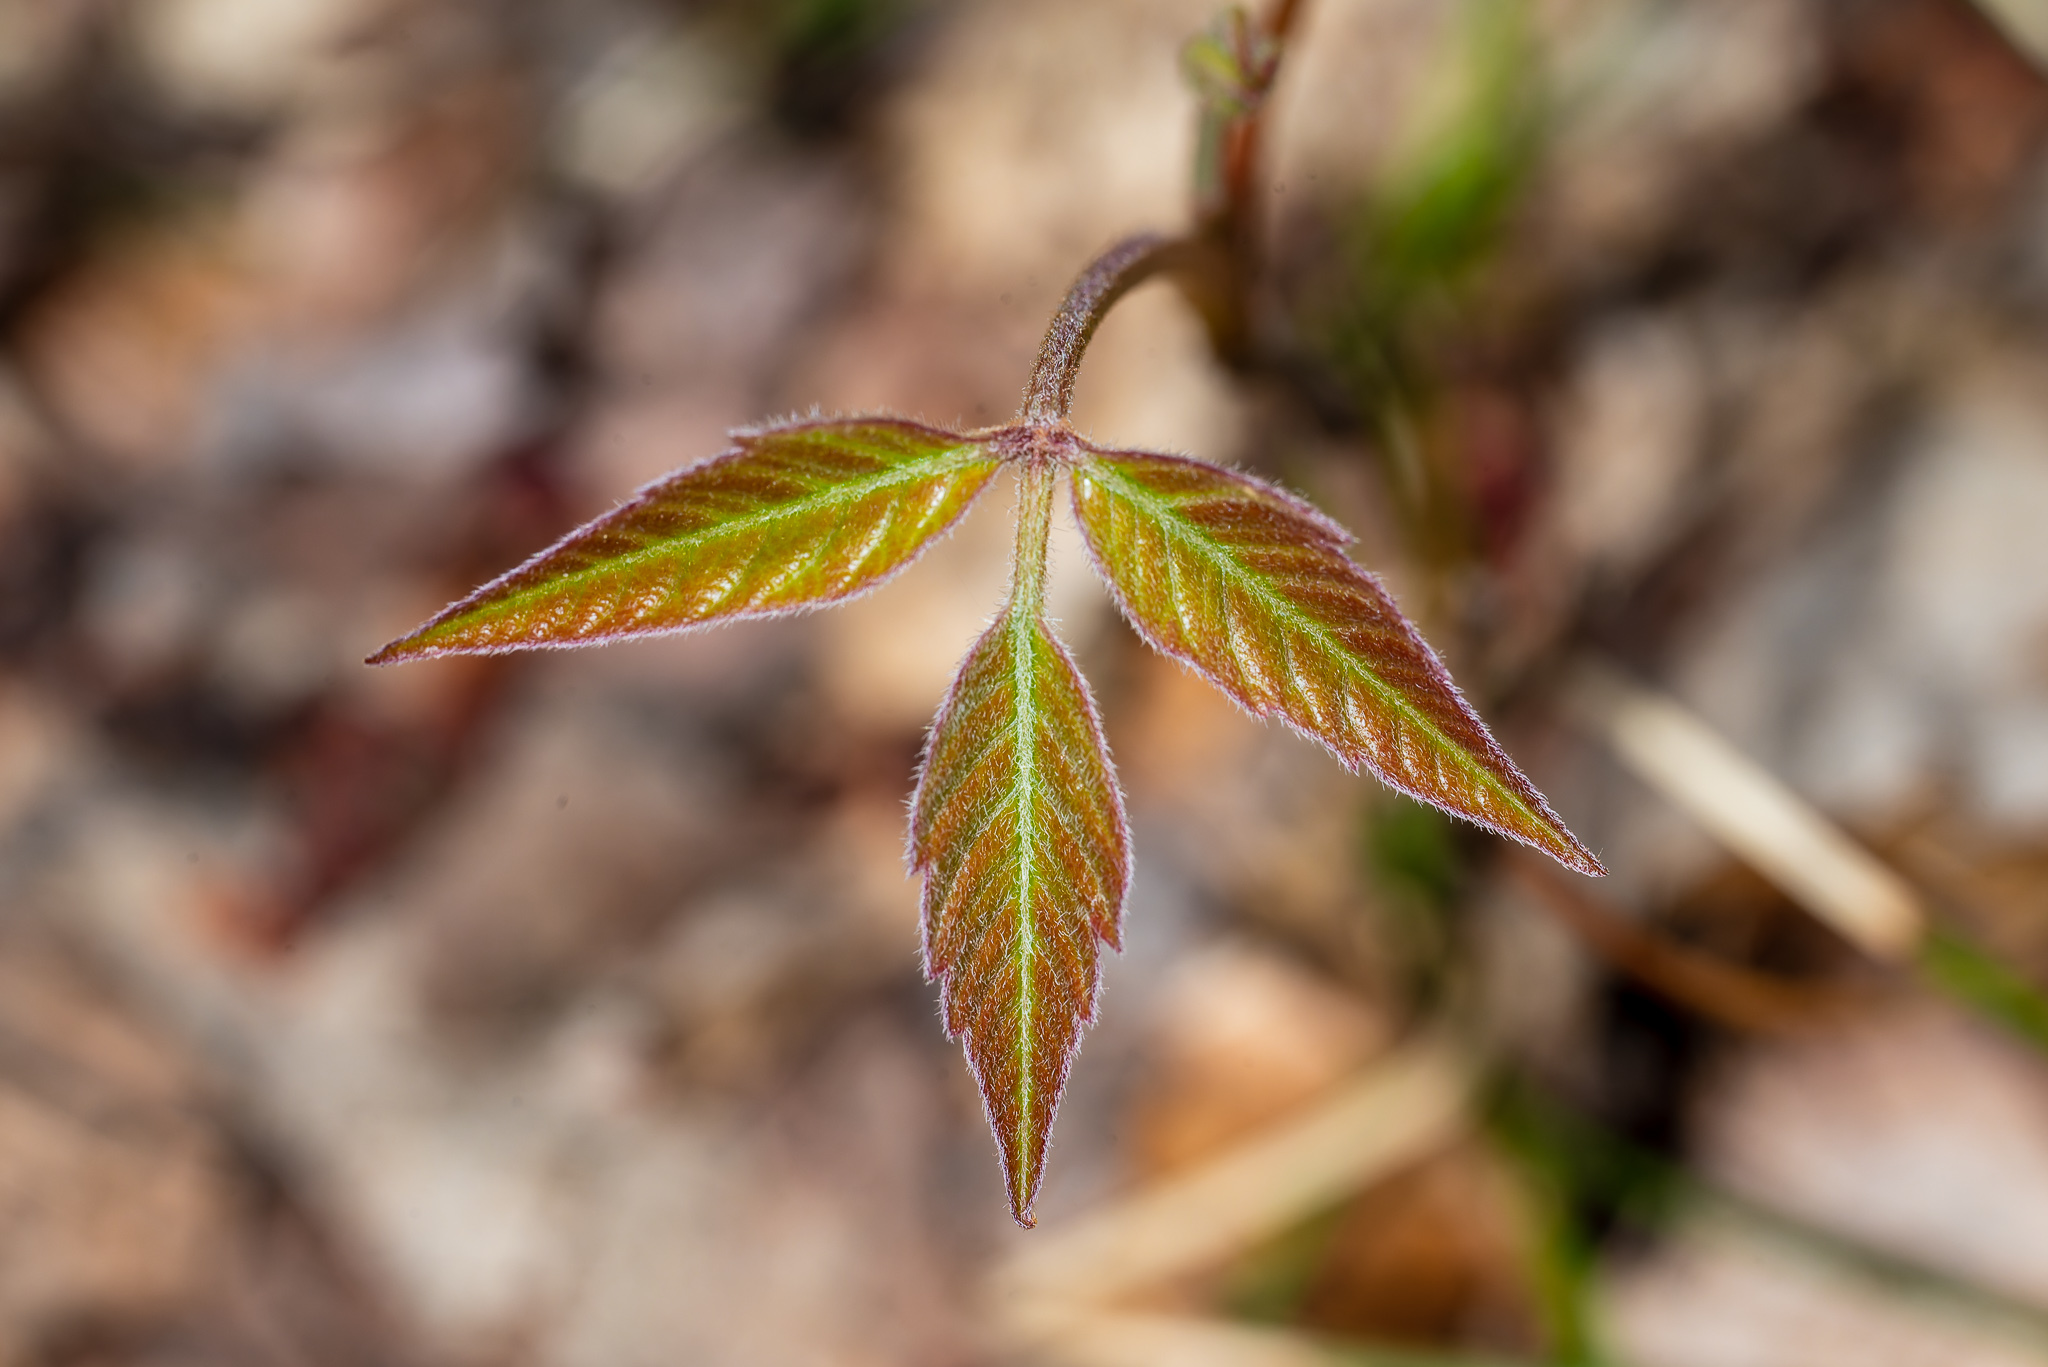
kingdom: Plantae
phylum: Tracheophyta
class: Magnoliopsida
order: Sapindales
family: Anacardiaceae
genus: Toxicodendron
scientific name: Toxicodendron radicans
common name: Poison ivy
